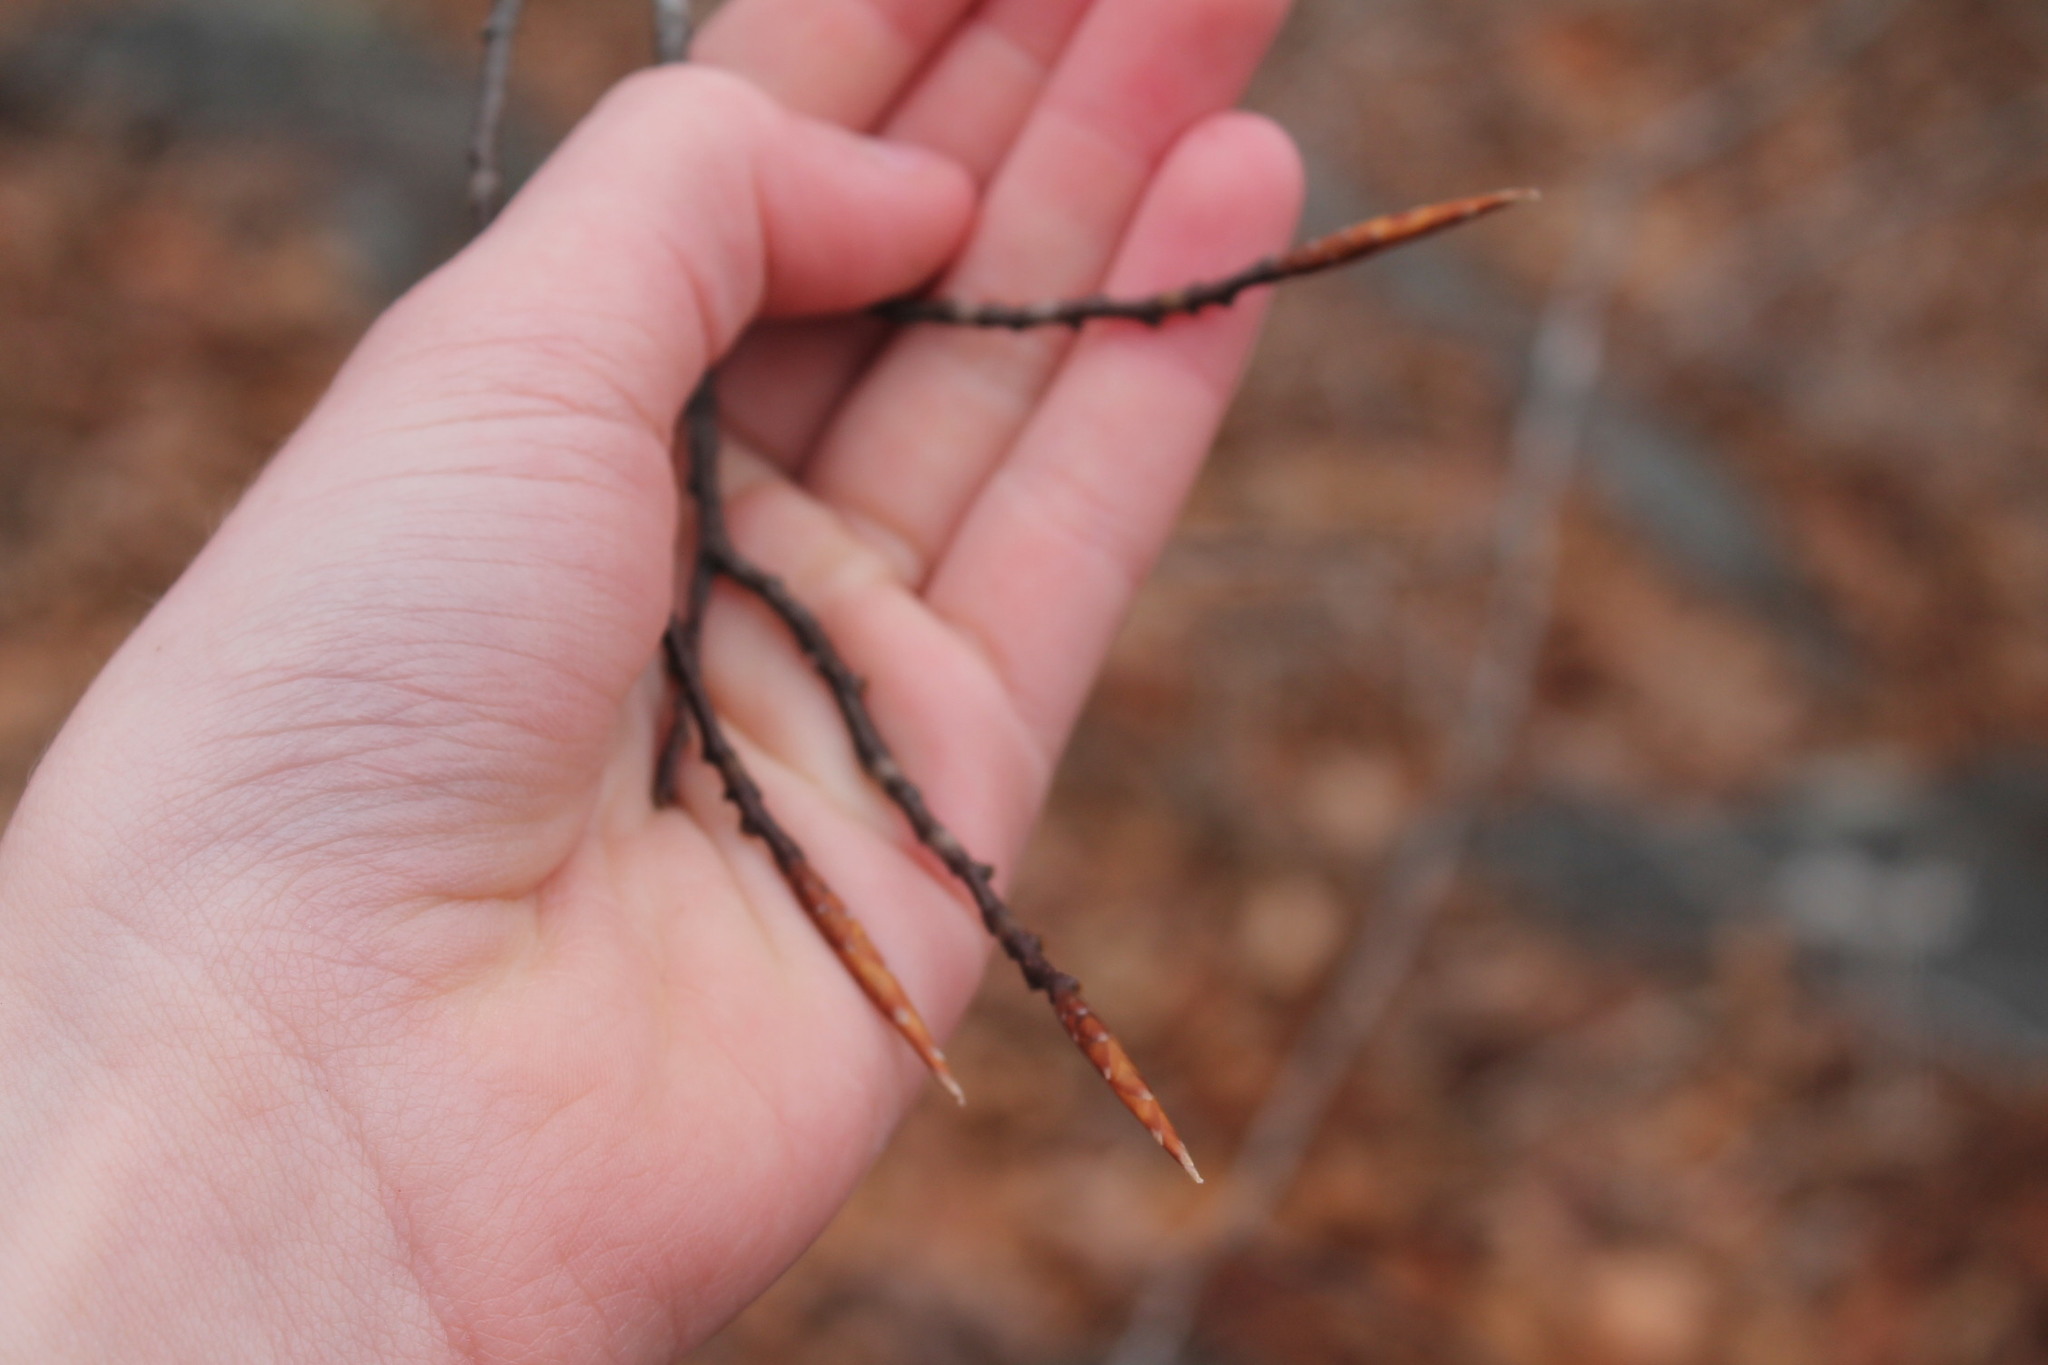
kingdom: Plantae
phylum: Tracheophyta
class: Magnoliopsida
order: Fagales
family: Fagaceae
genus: Fagus
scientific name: Fagus grandifolia
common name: American beech
